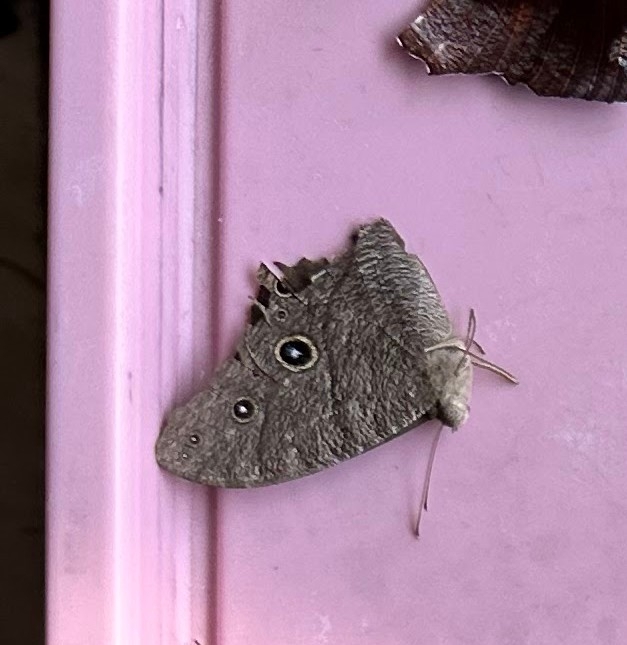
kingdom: Animalia
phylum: Arthropoda
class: Insecta
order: Lepidoptera
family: Nymphalidae
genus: Melanitis
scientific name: Melanitis leda
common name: Twilight brown
